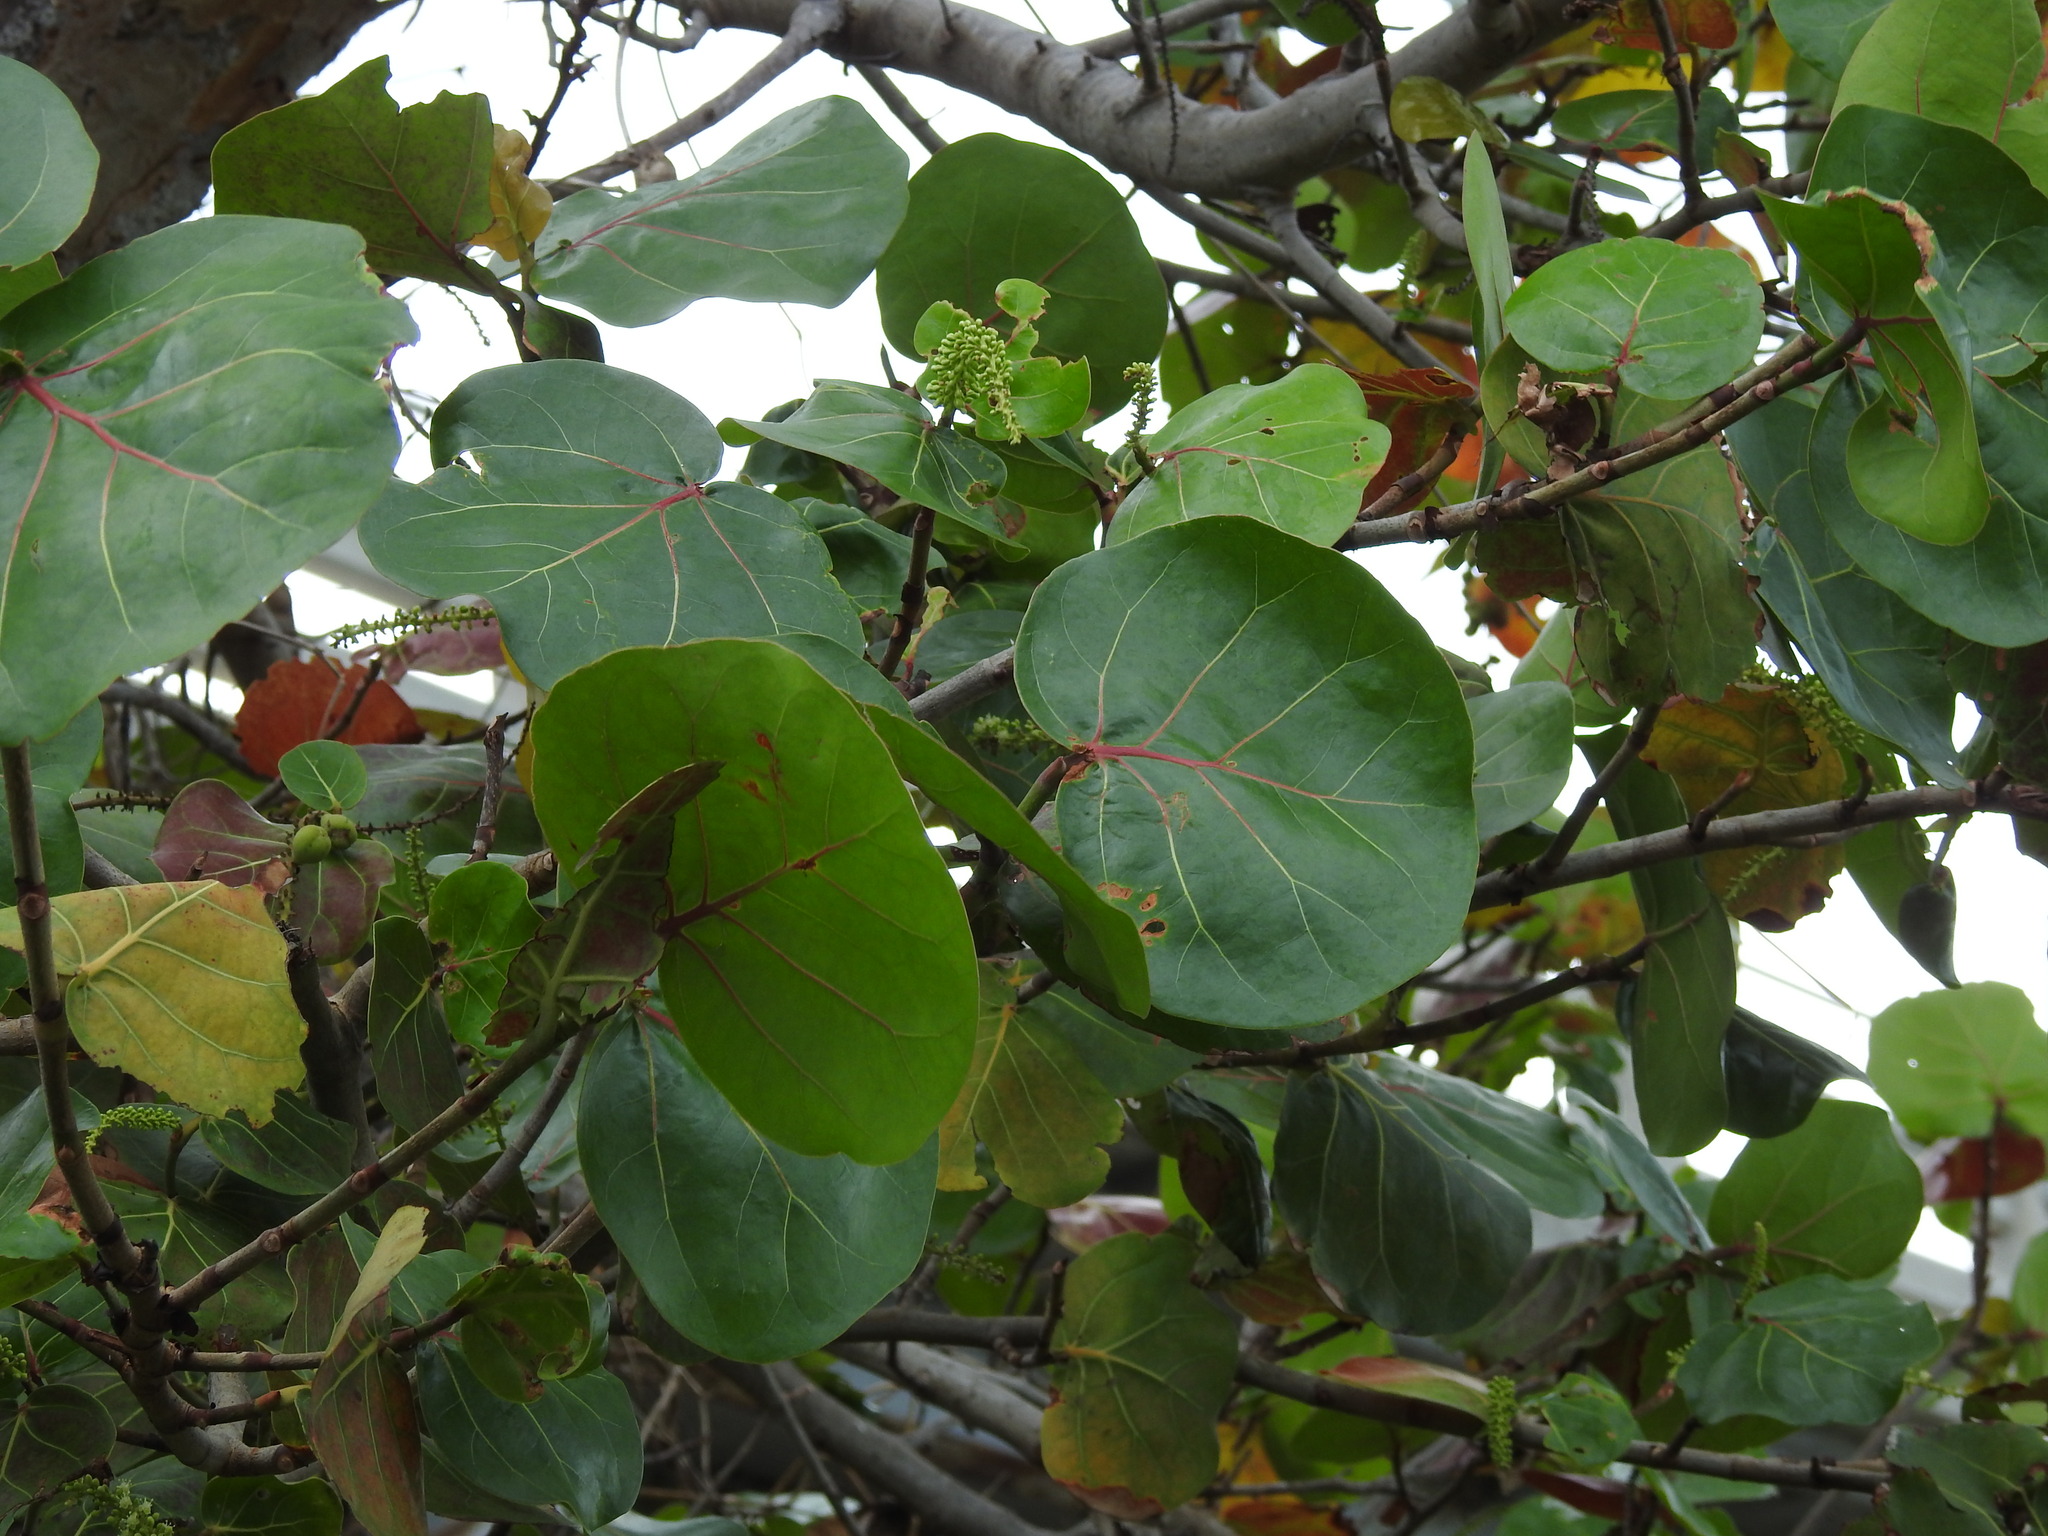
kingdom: Plantae
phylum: Tracheophyta
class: Magnoliopsida
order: Caryophyllales
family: Polygonaceae
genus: Coccoloba
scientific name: Coccoloba uvifera
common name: Seagrape
